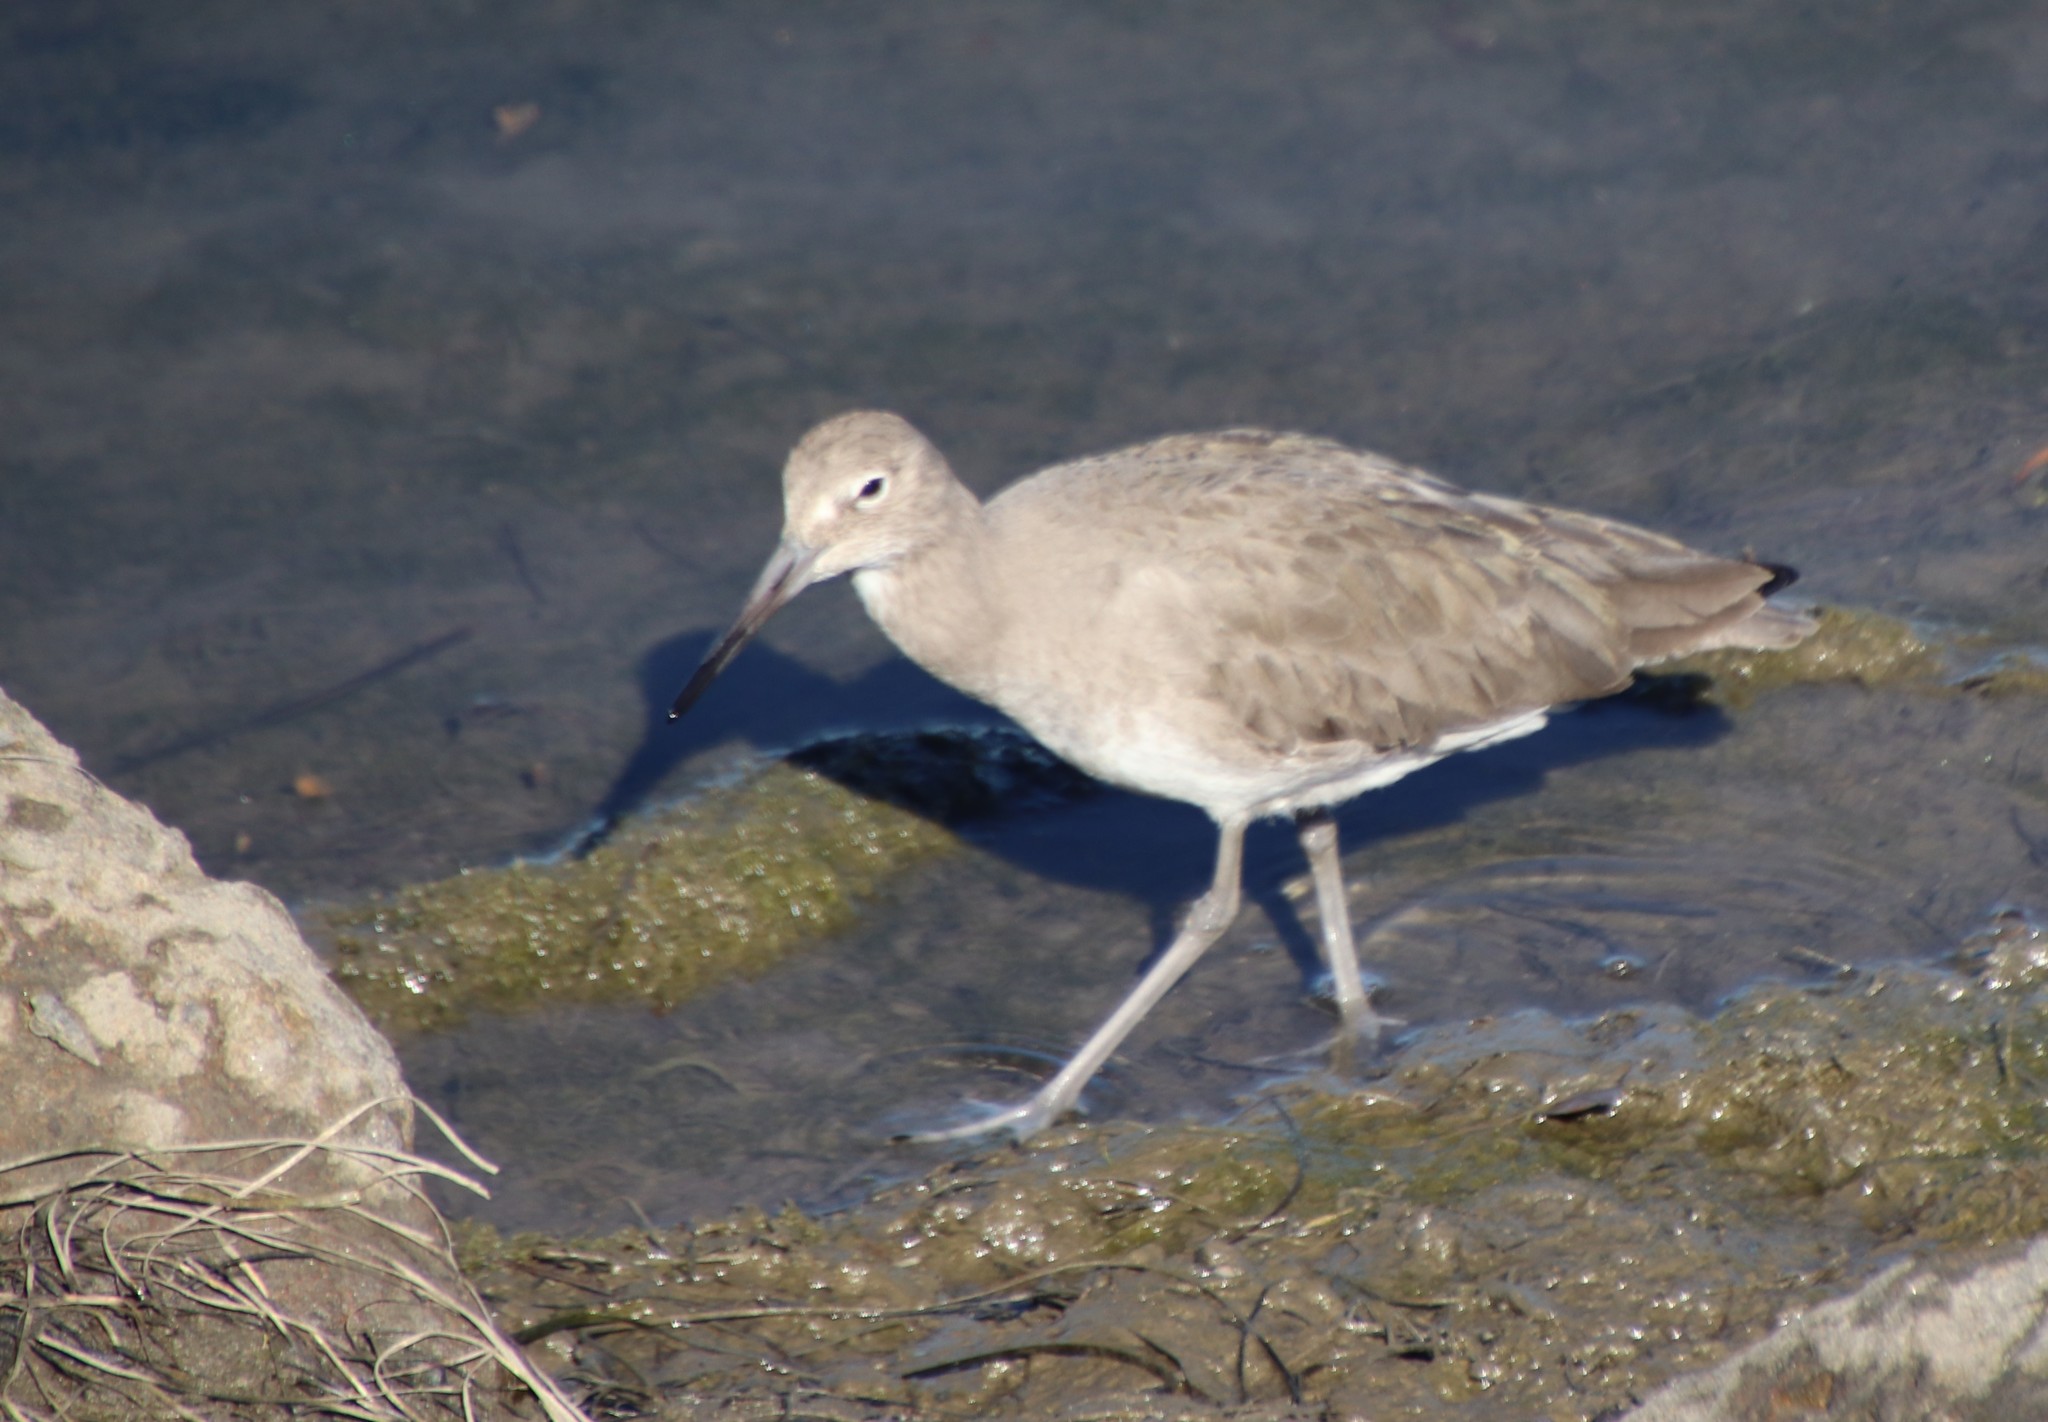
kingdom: Animalia
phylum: Chordata
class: Aves
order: Charadriiformes
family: Scolopacidae
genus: Tringa
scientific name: Tringa semipalmata
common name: Willet
